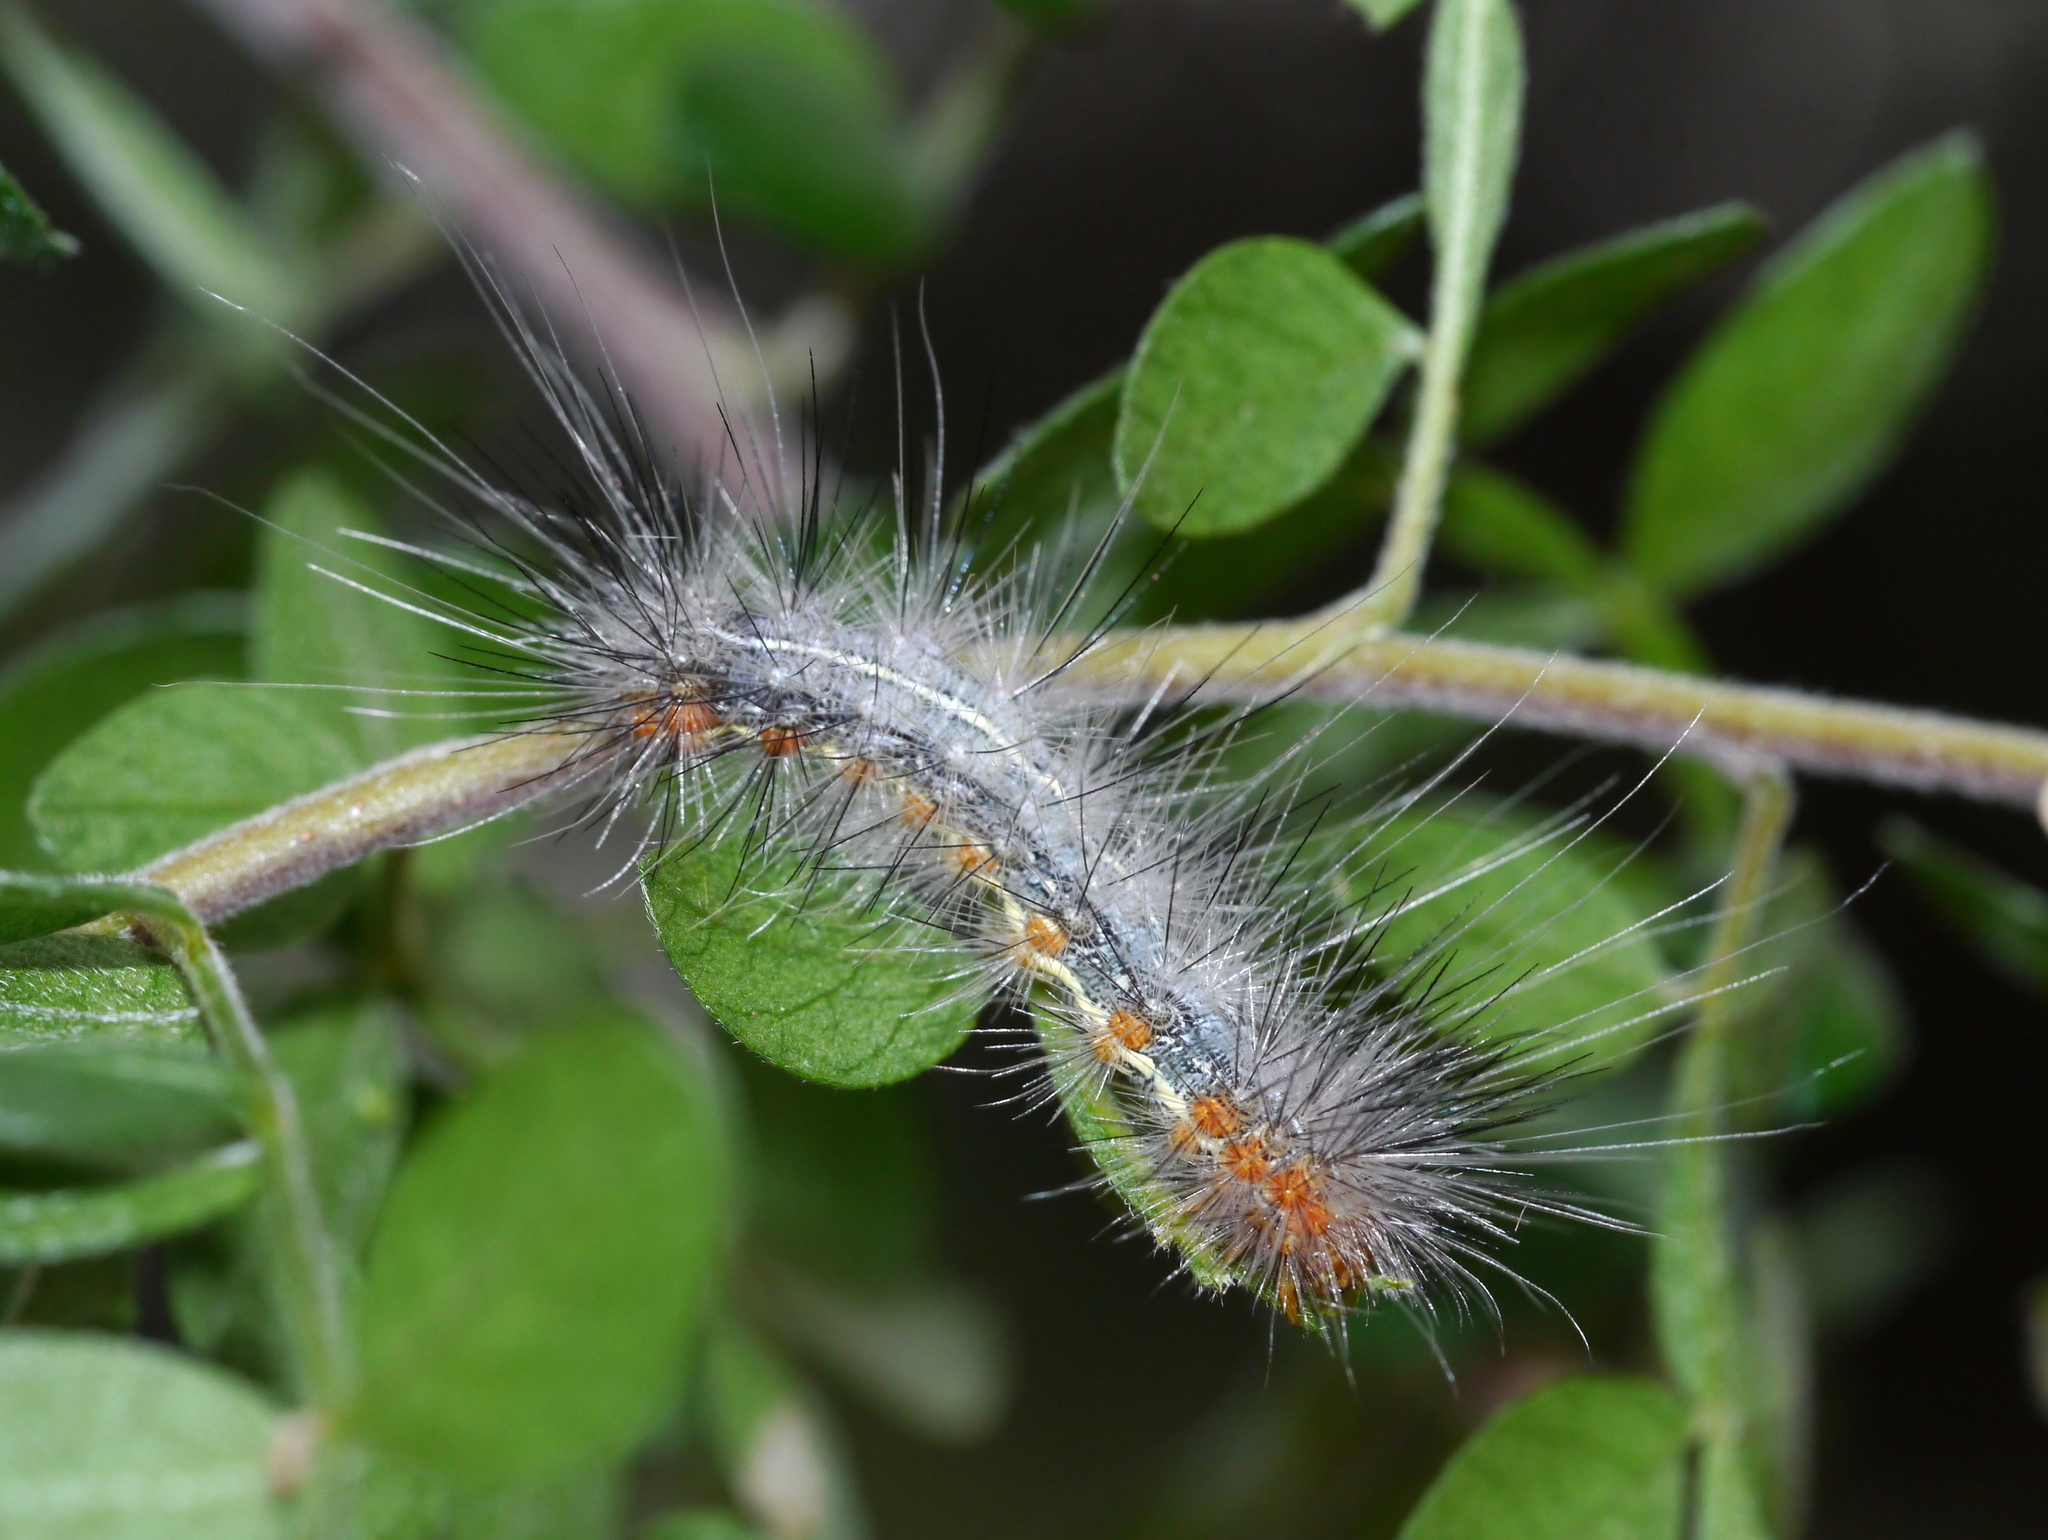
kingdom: Animalia
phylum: Arthropoda
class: Insecta
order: Lepidoptera
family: Erebidae
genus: Hypercompe
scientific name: Hypercompe suffusa
